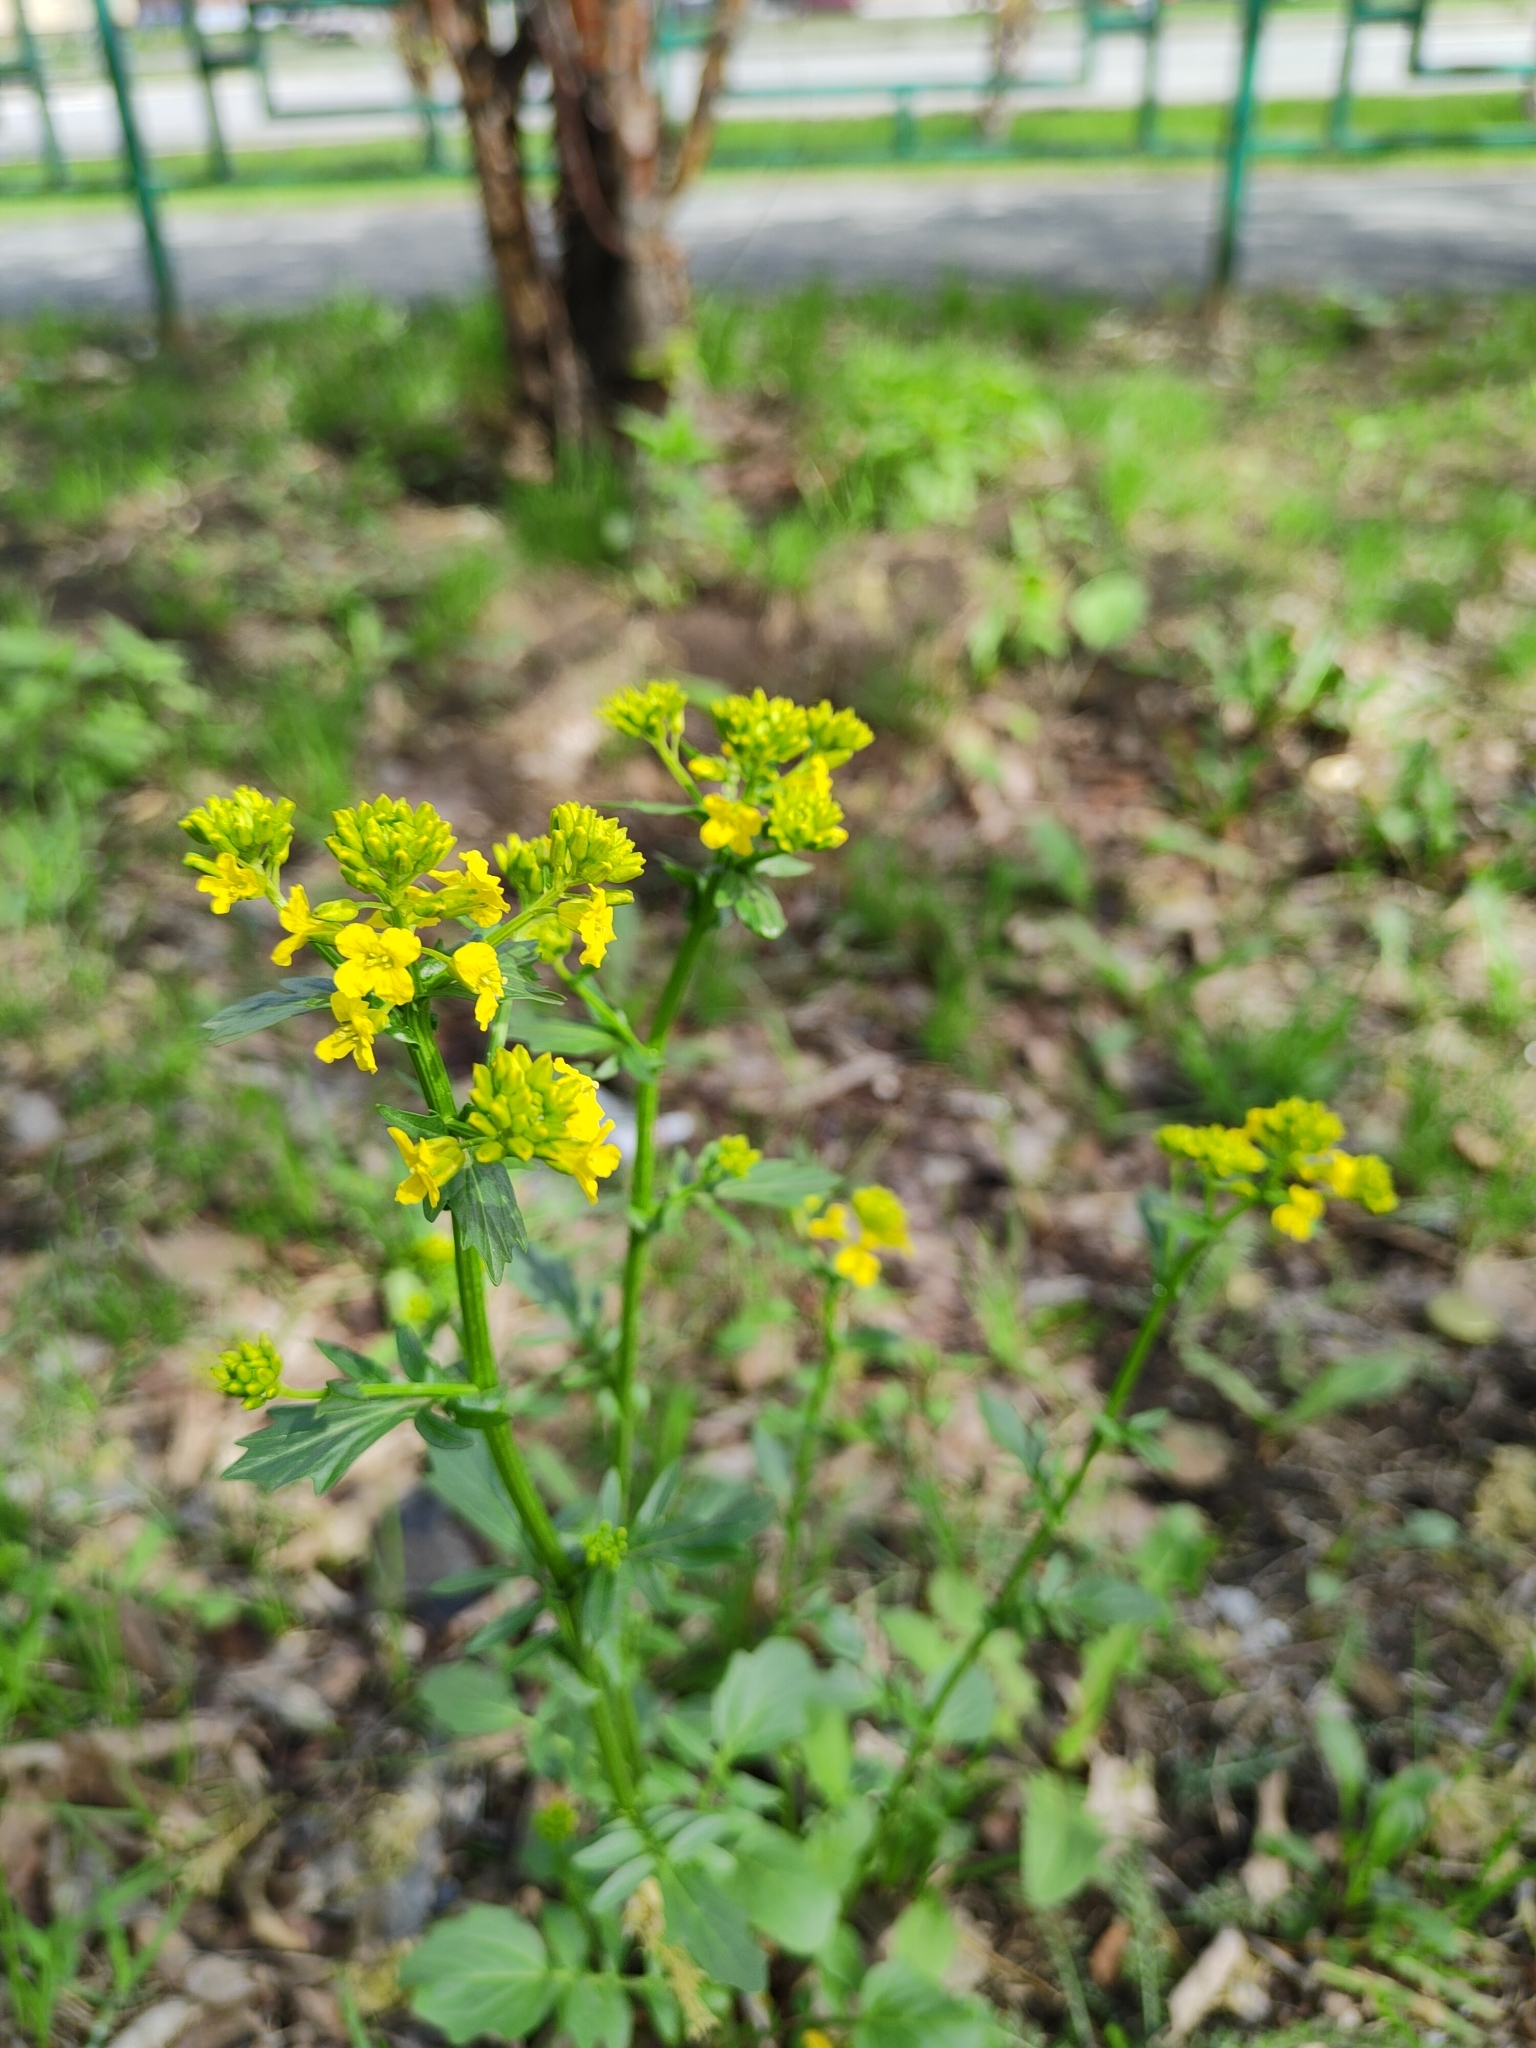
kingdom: Plantae
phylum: Tracheophyta
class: Magnoliopsida
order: Brassicales
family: Brassicaceae
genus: Barbarea
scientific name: Barbarea vulgaris
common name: Cressy-greens
